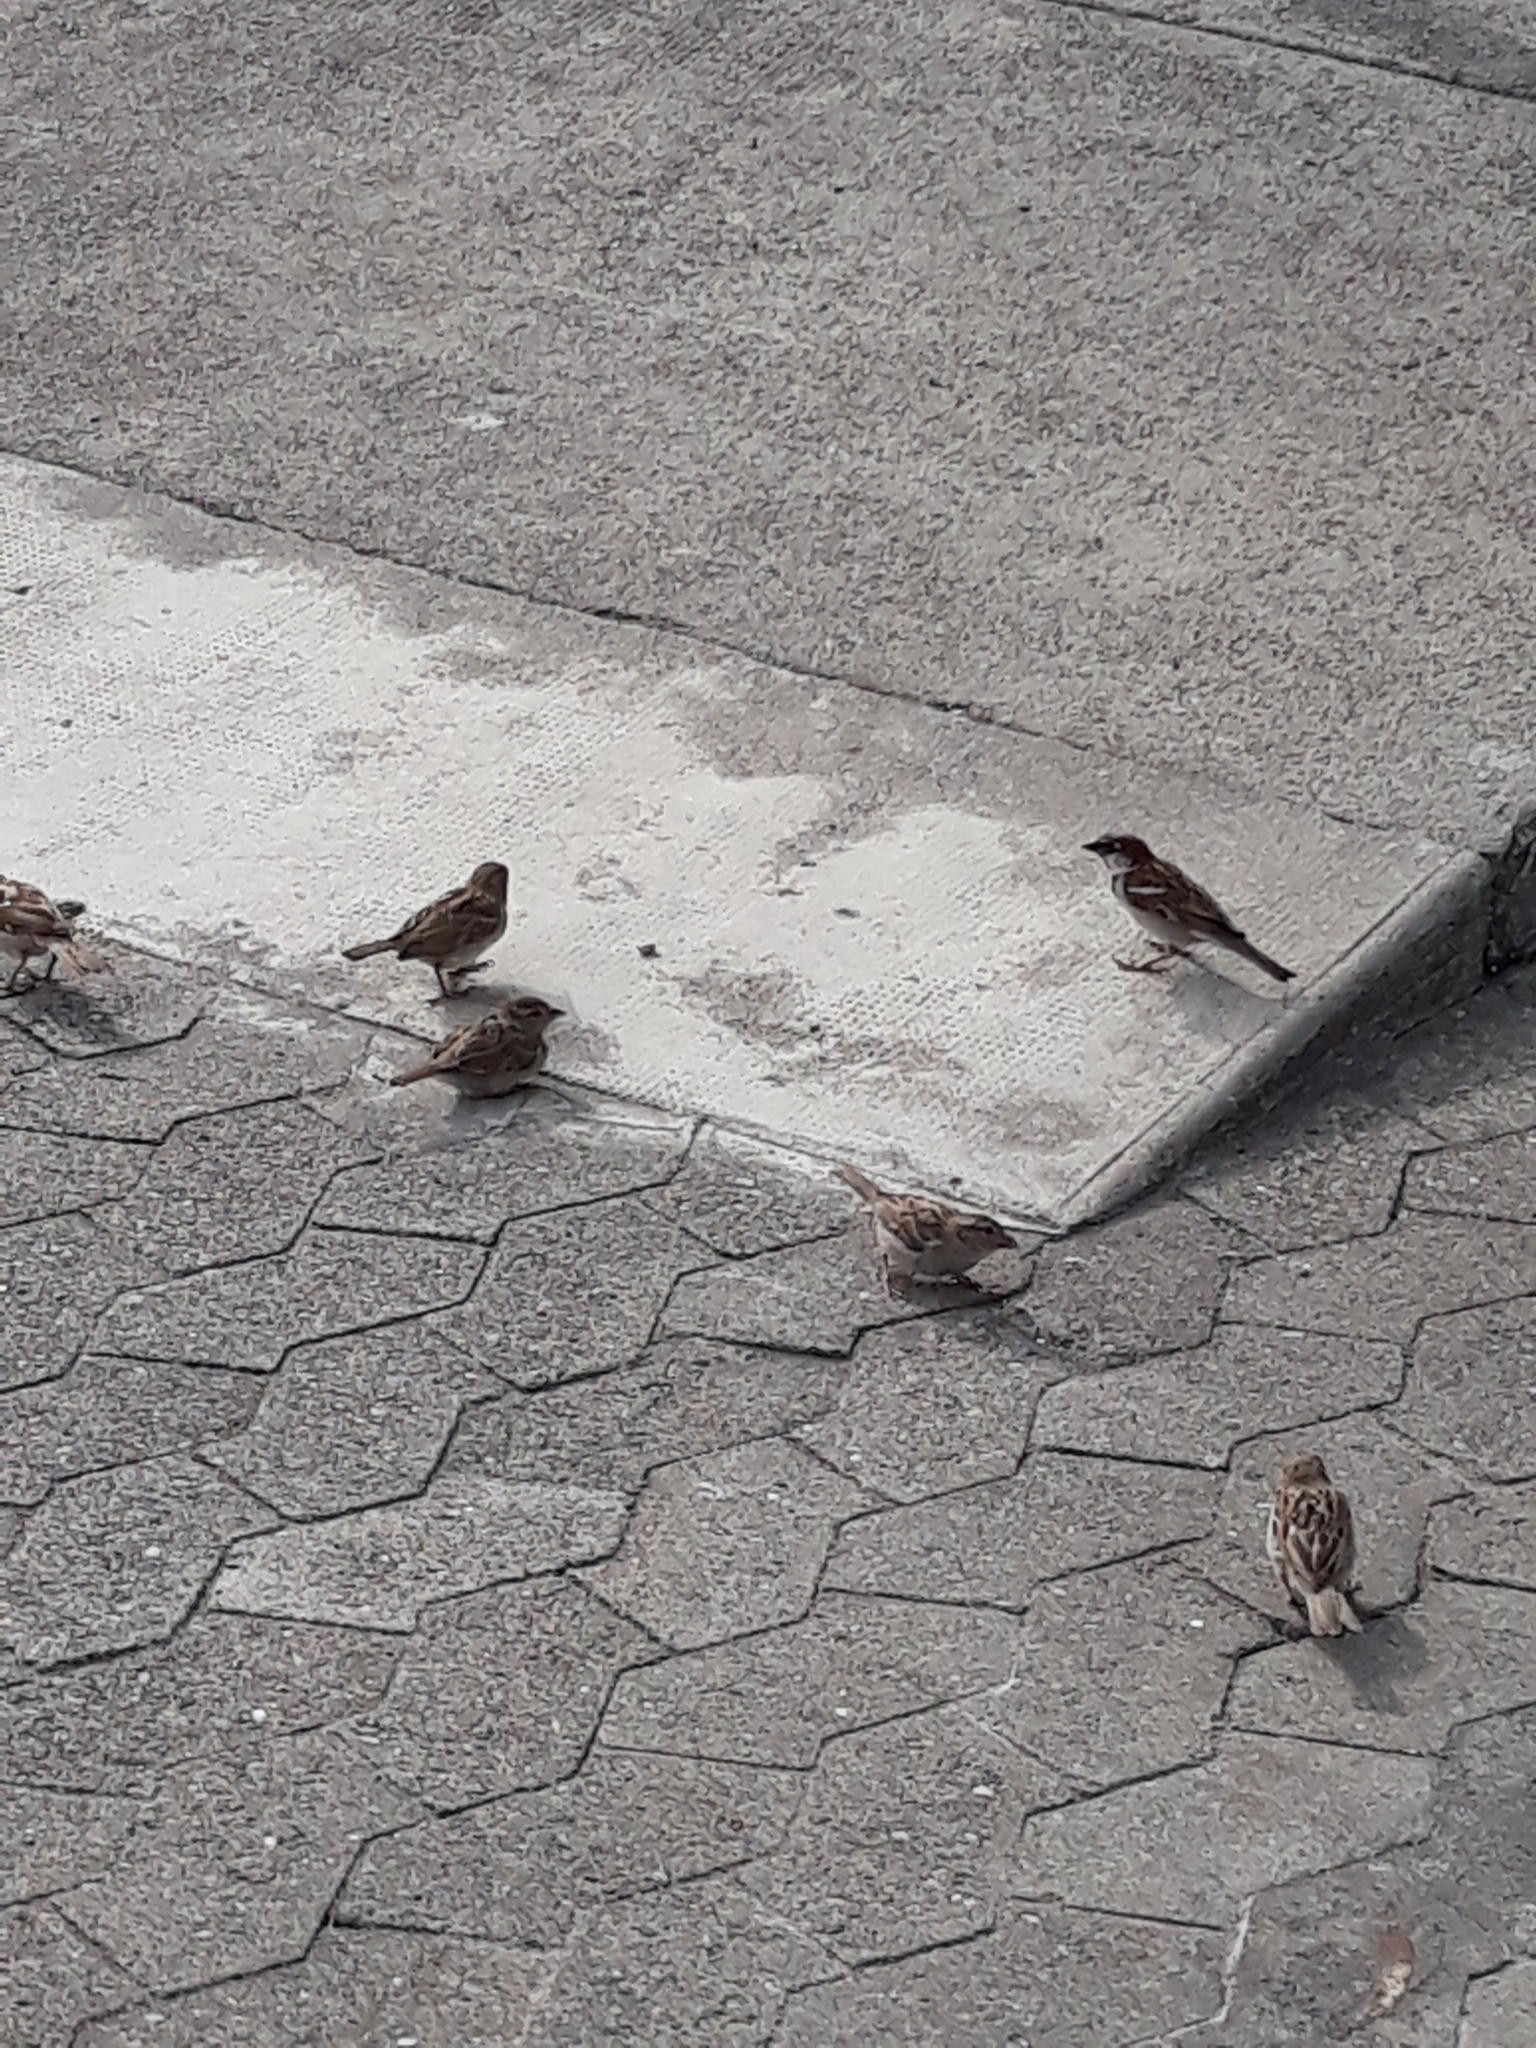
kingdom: Animalia
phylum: Chordata
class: Aves
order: Passeriformes
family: Passeridae
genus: Passer
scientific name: Passer domesticus
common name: House sparrow
